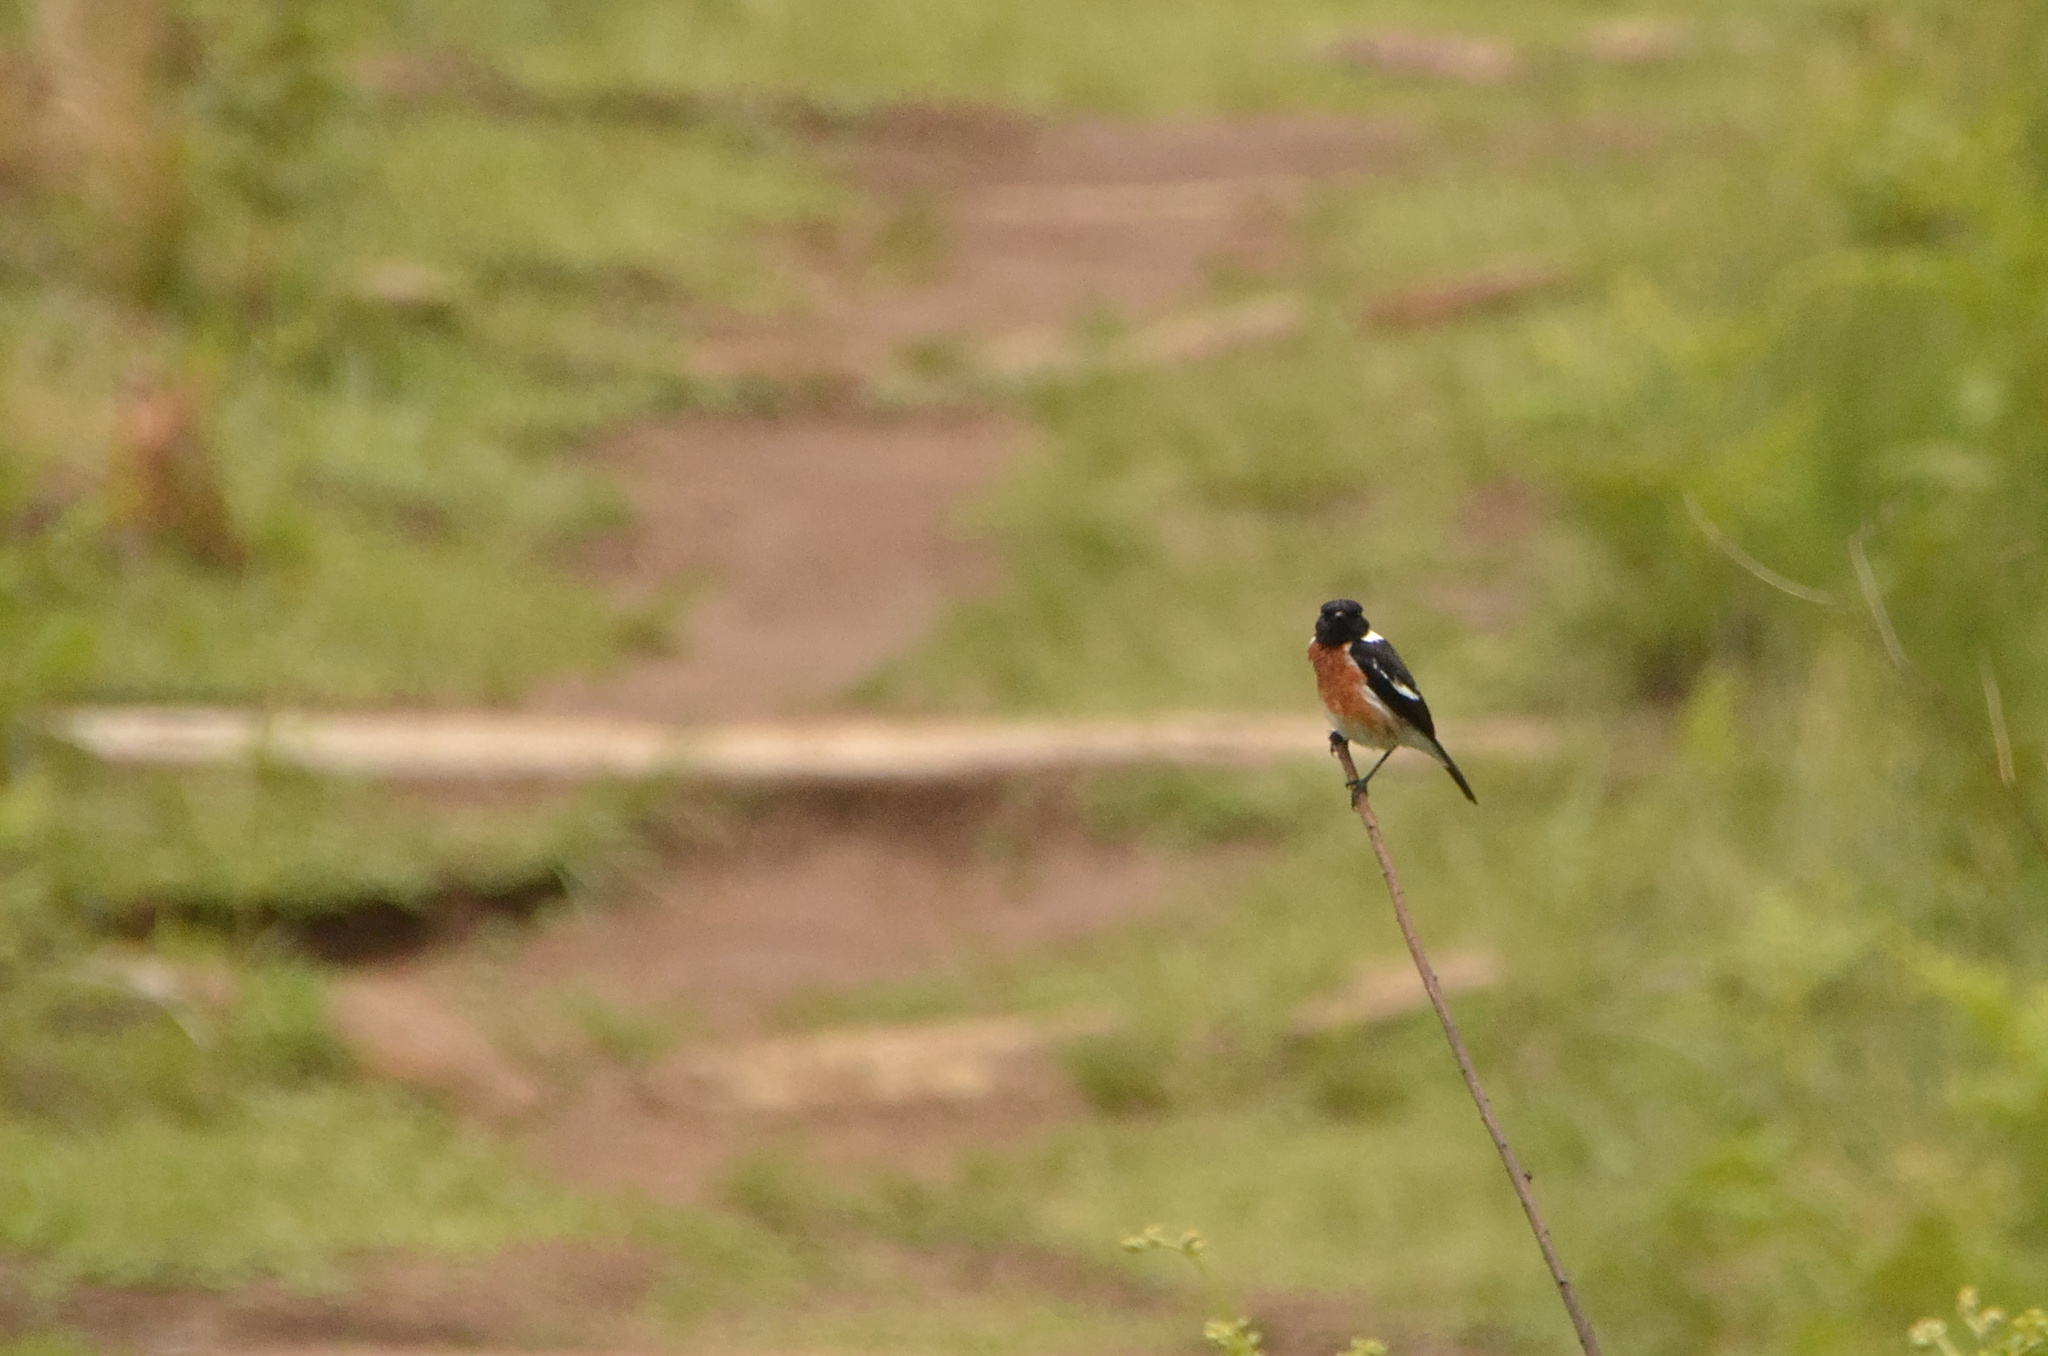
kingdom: Animalia
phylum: Chordata
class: Aves
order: Passeriformes
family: Muscicapidae
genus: Saxicola
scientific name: Saxicola torquatus
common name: African stonechat
